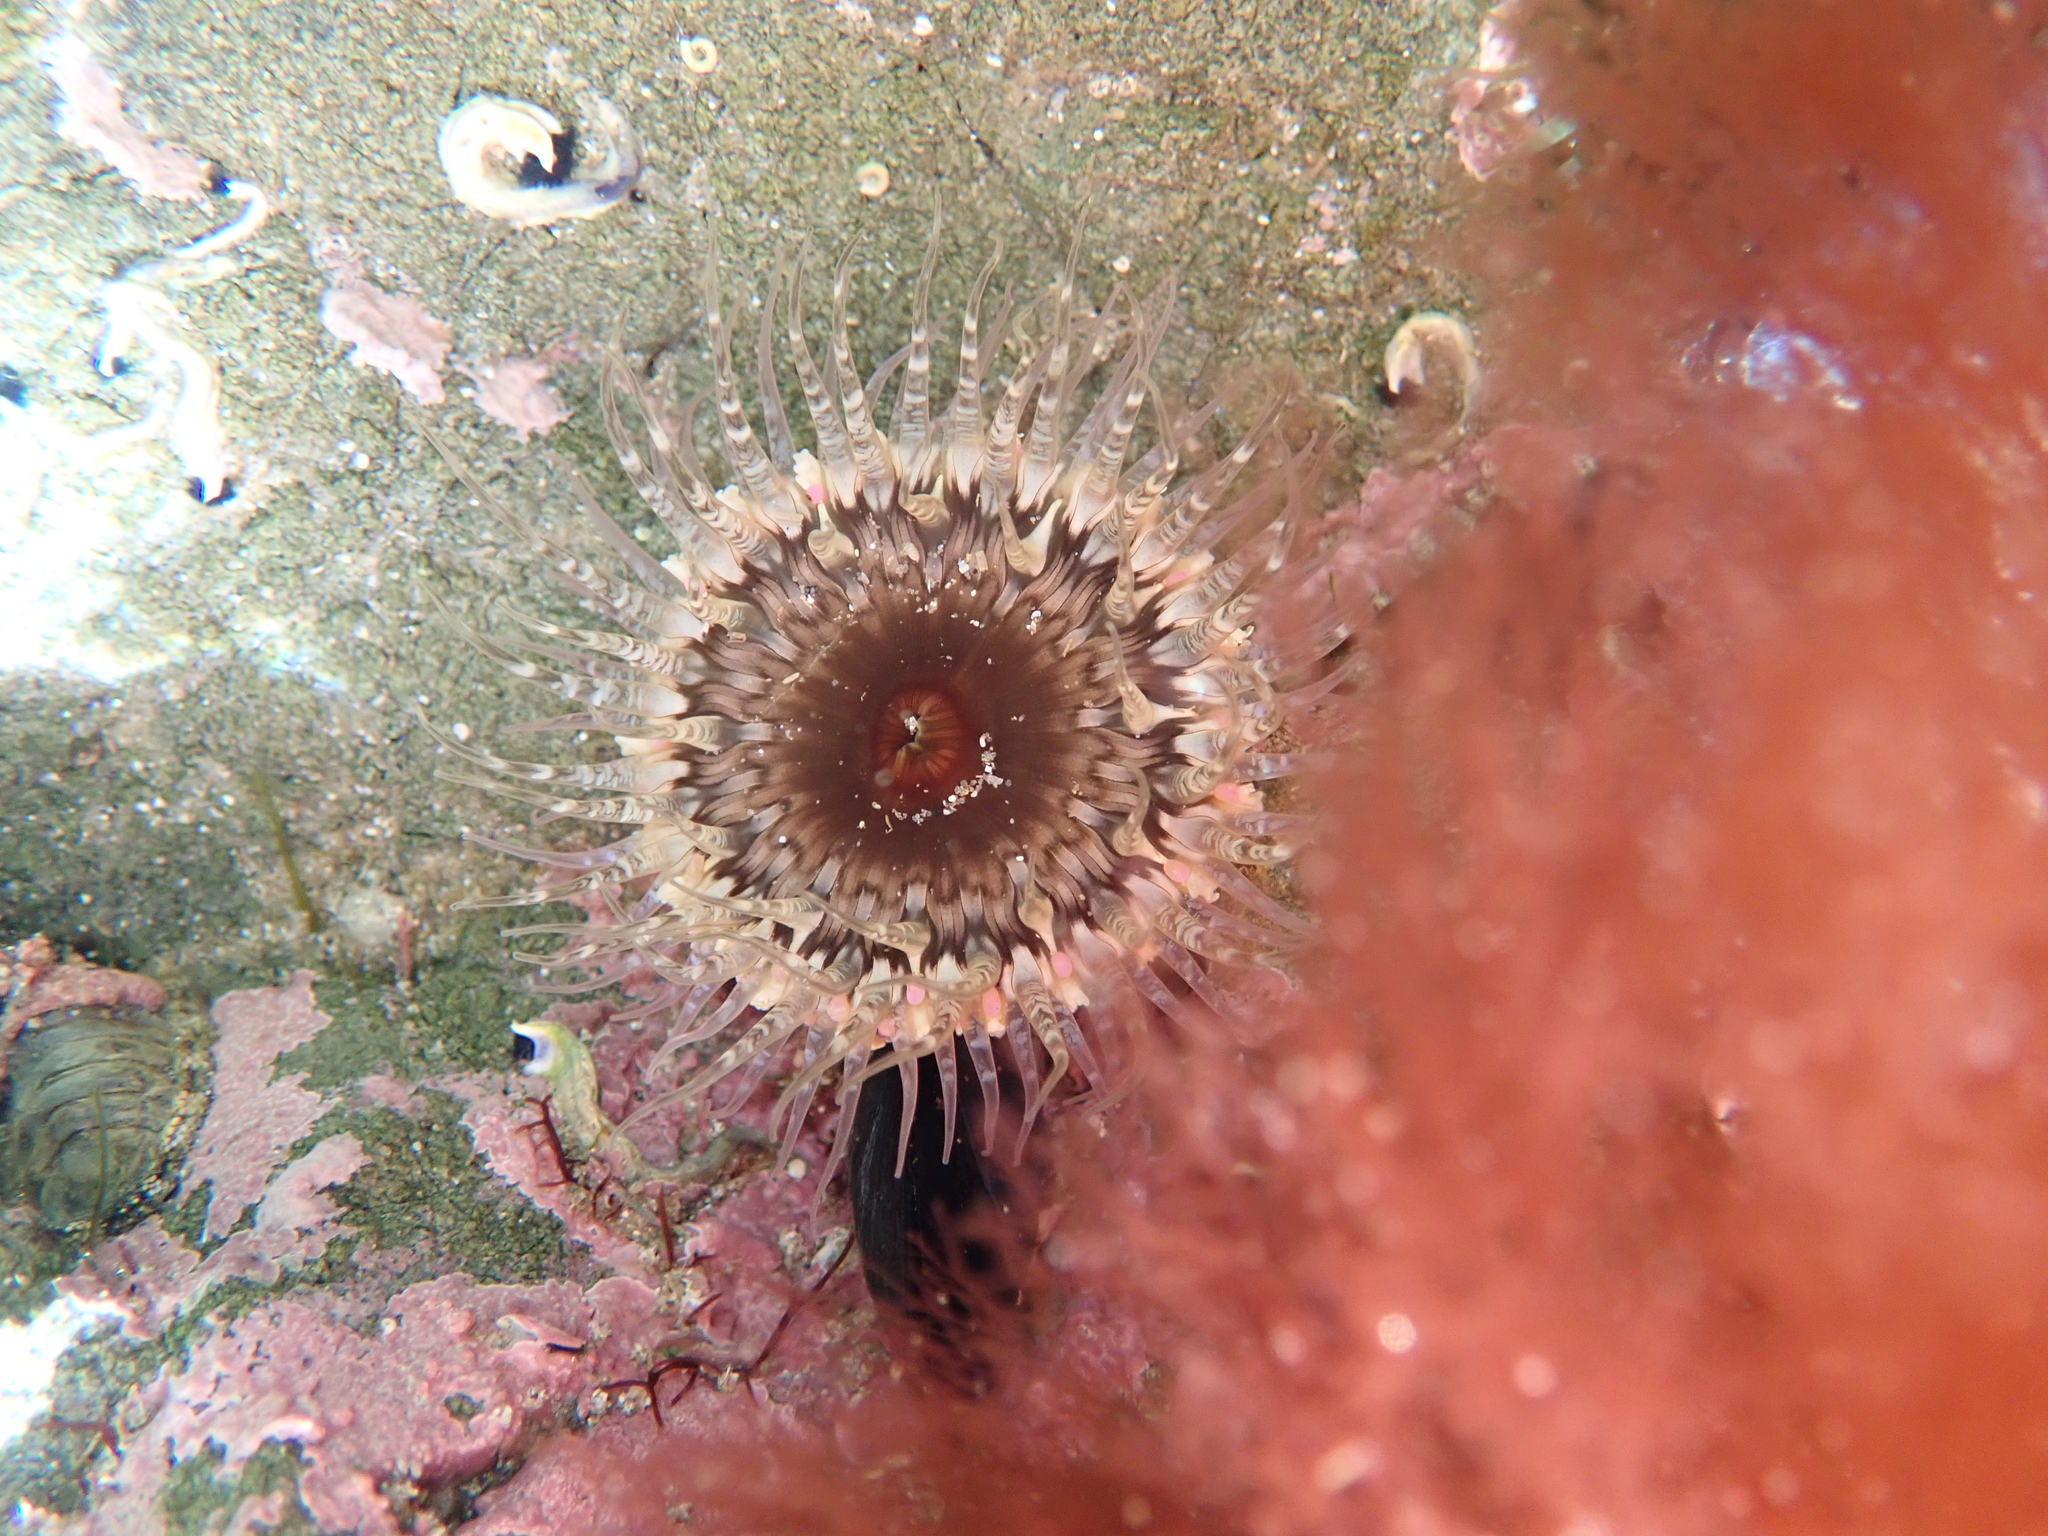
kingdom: Animalia
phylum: Cnidaria
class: Anthozoa
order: Actiniaria
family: Actiniidae
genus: Oulactis
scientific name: Oulactis muscosa
